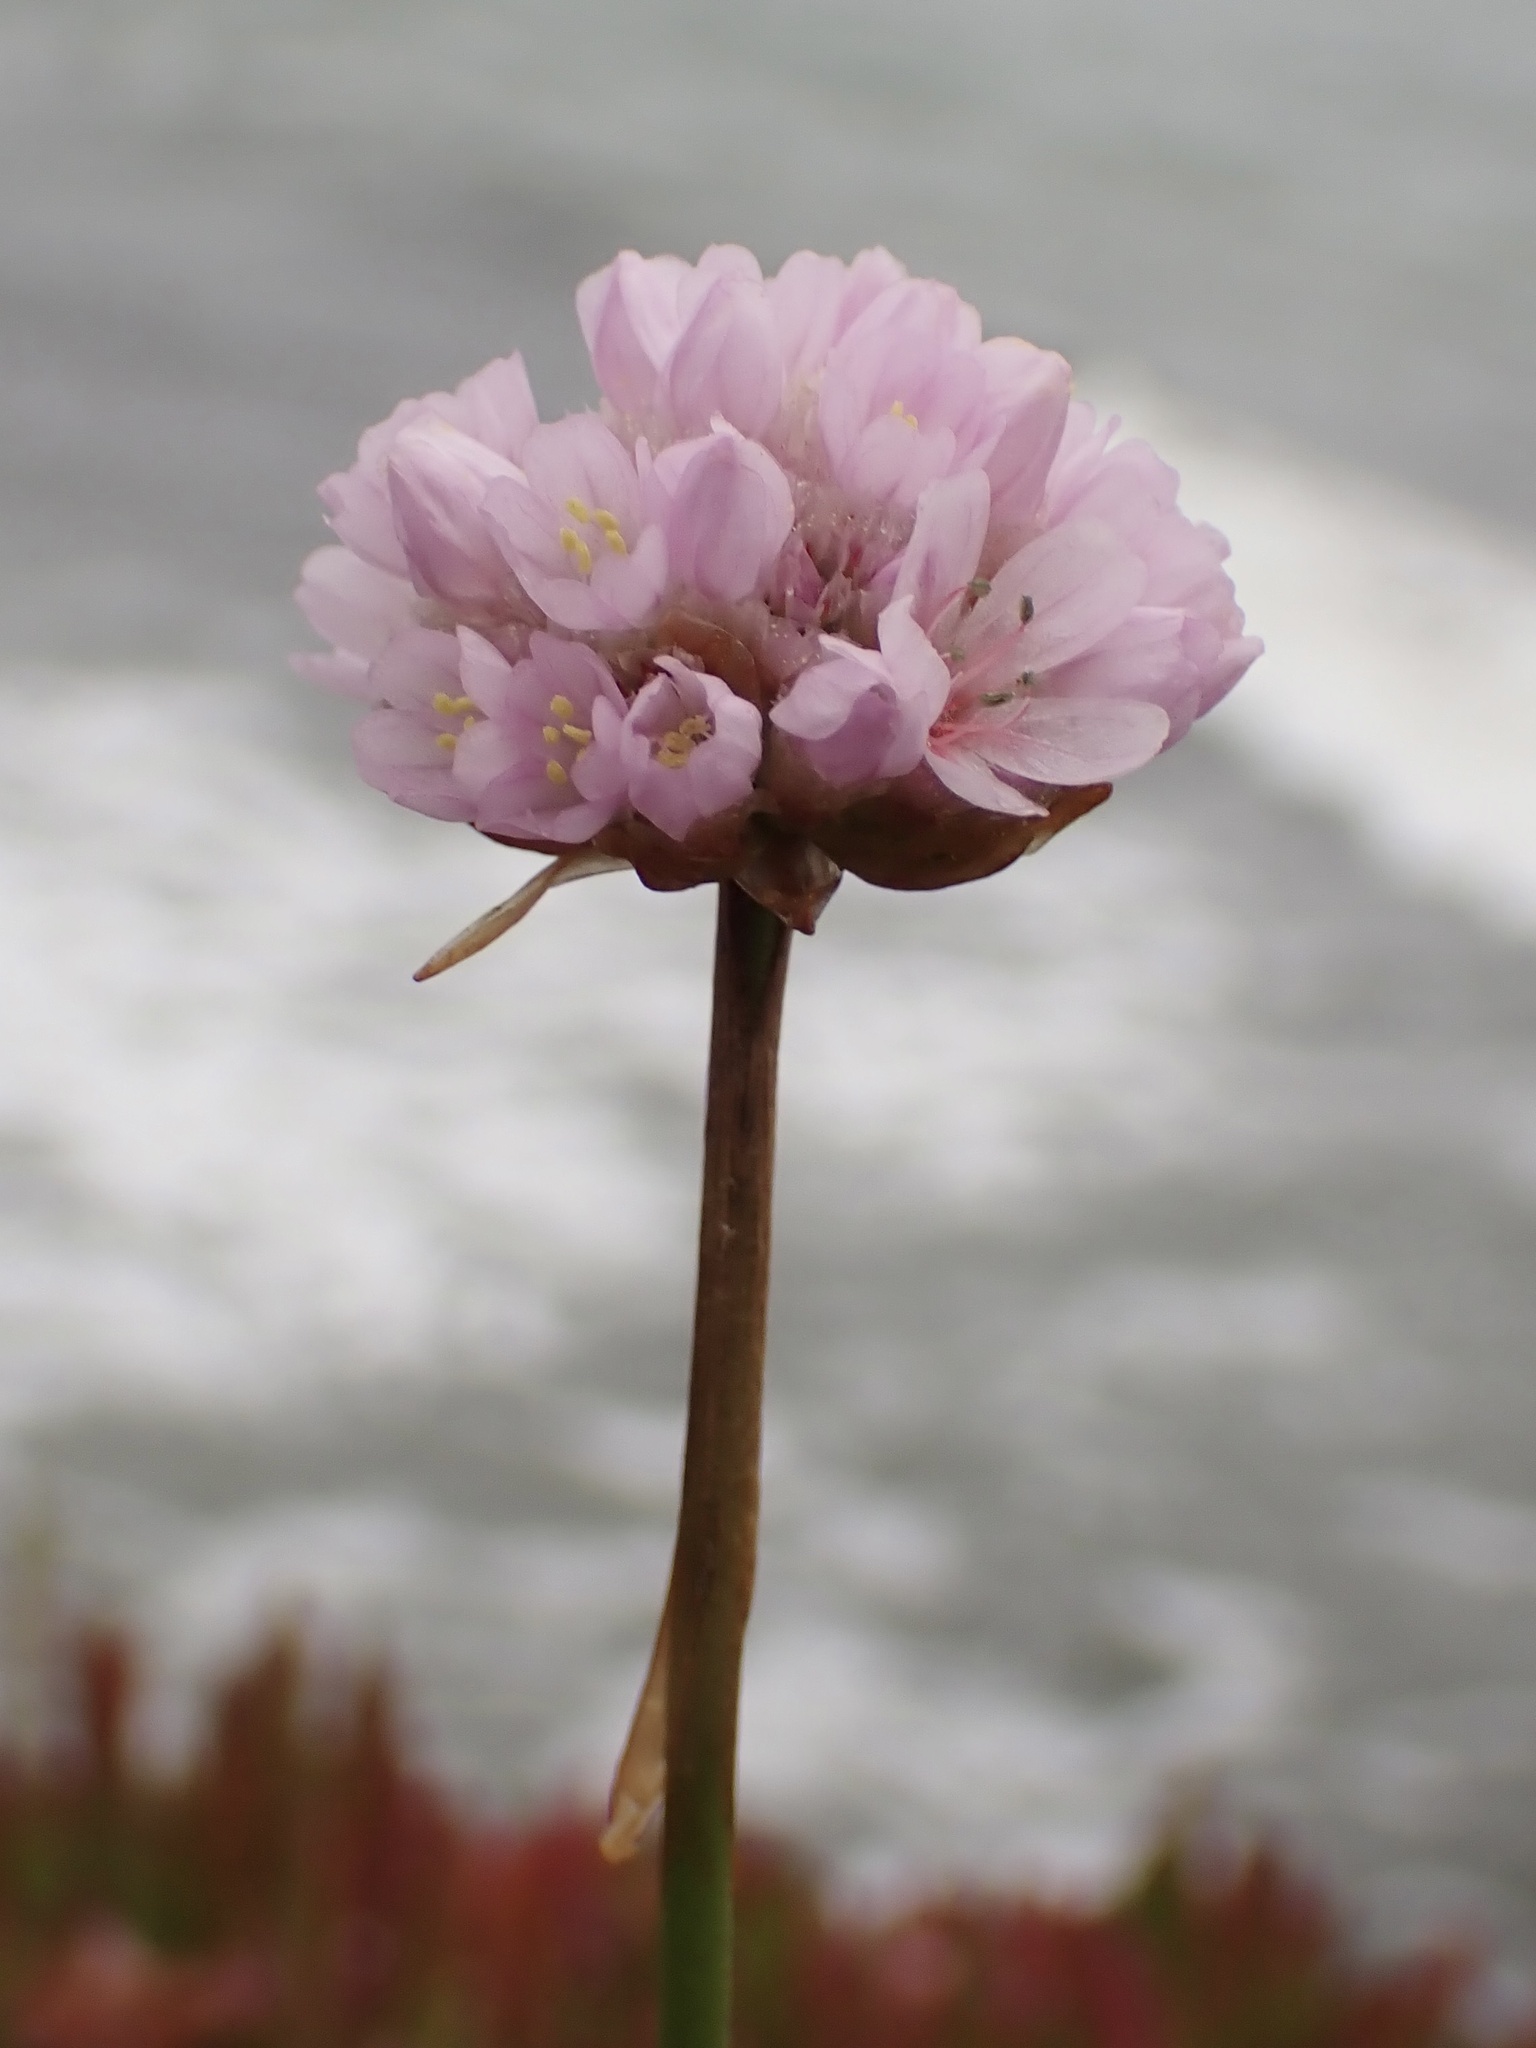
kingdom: Plantae
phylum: Tracheophyta
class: Magnoliopsida
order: Caryophyllales
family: Plumbaginaceae
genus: Armeria
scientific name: Armeria maritima
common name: Thrift
